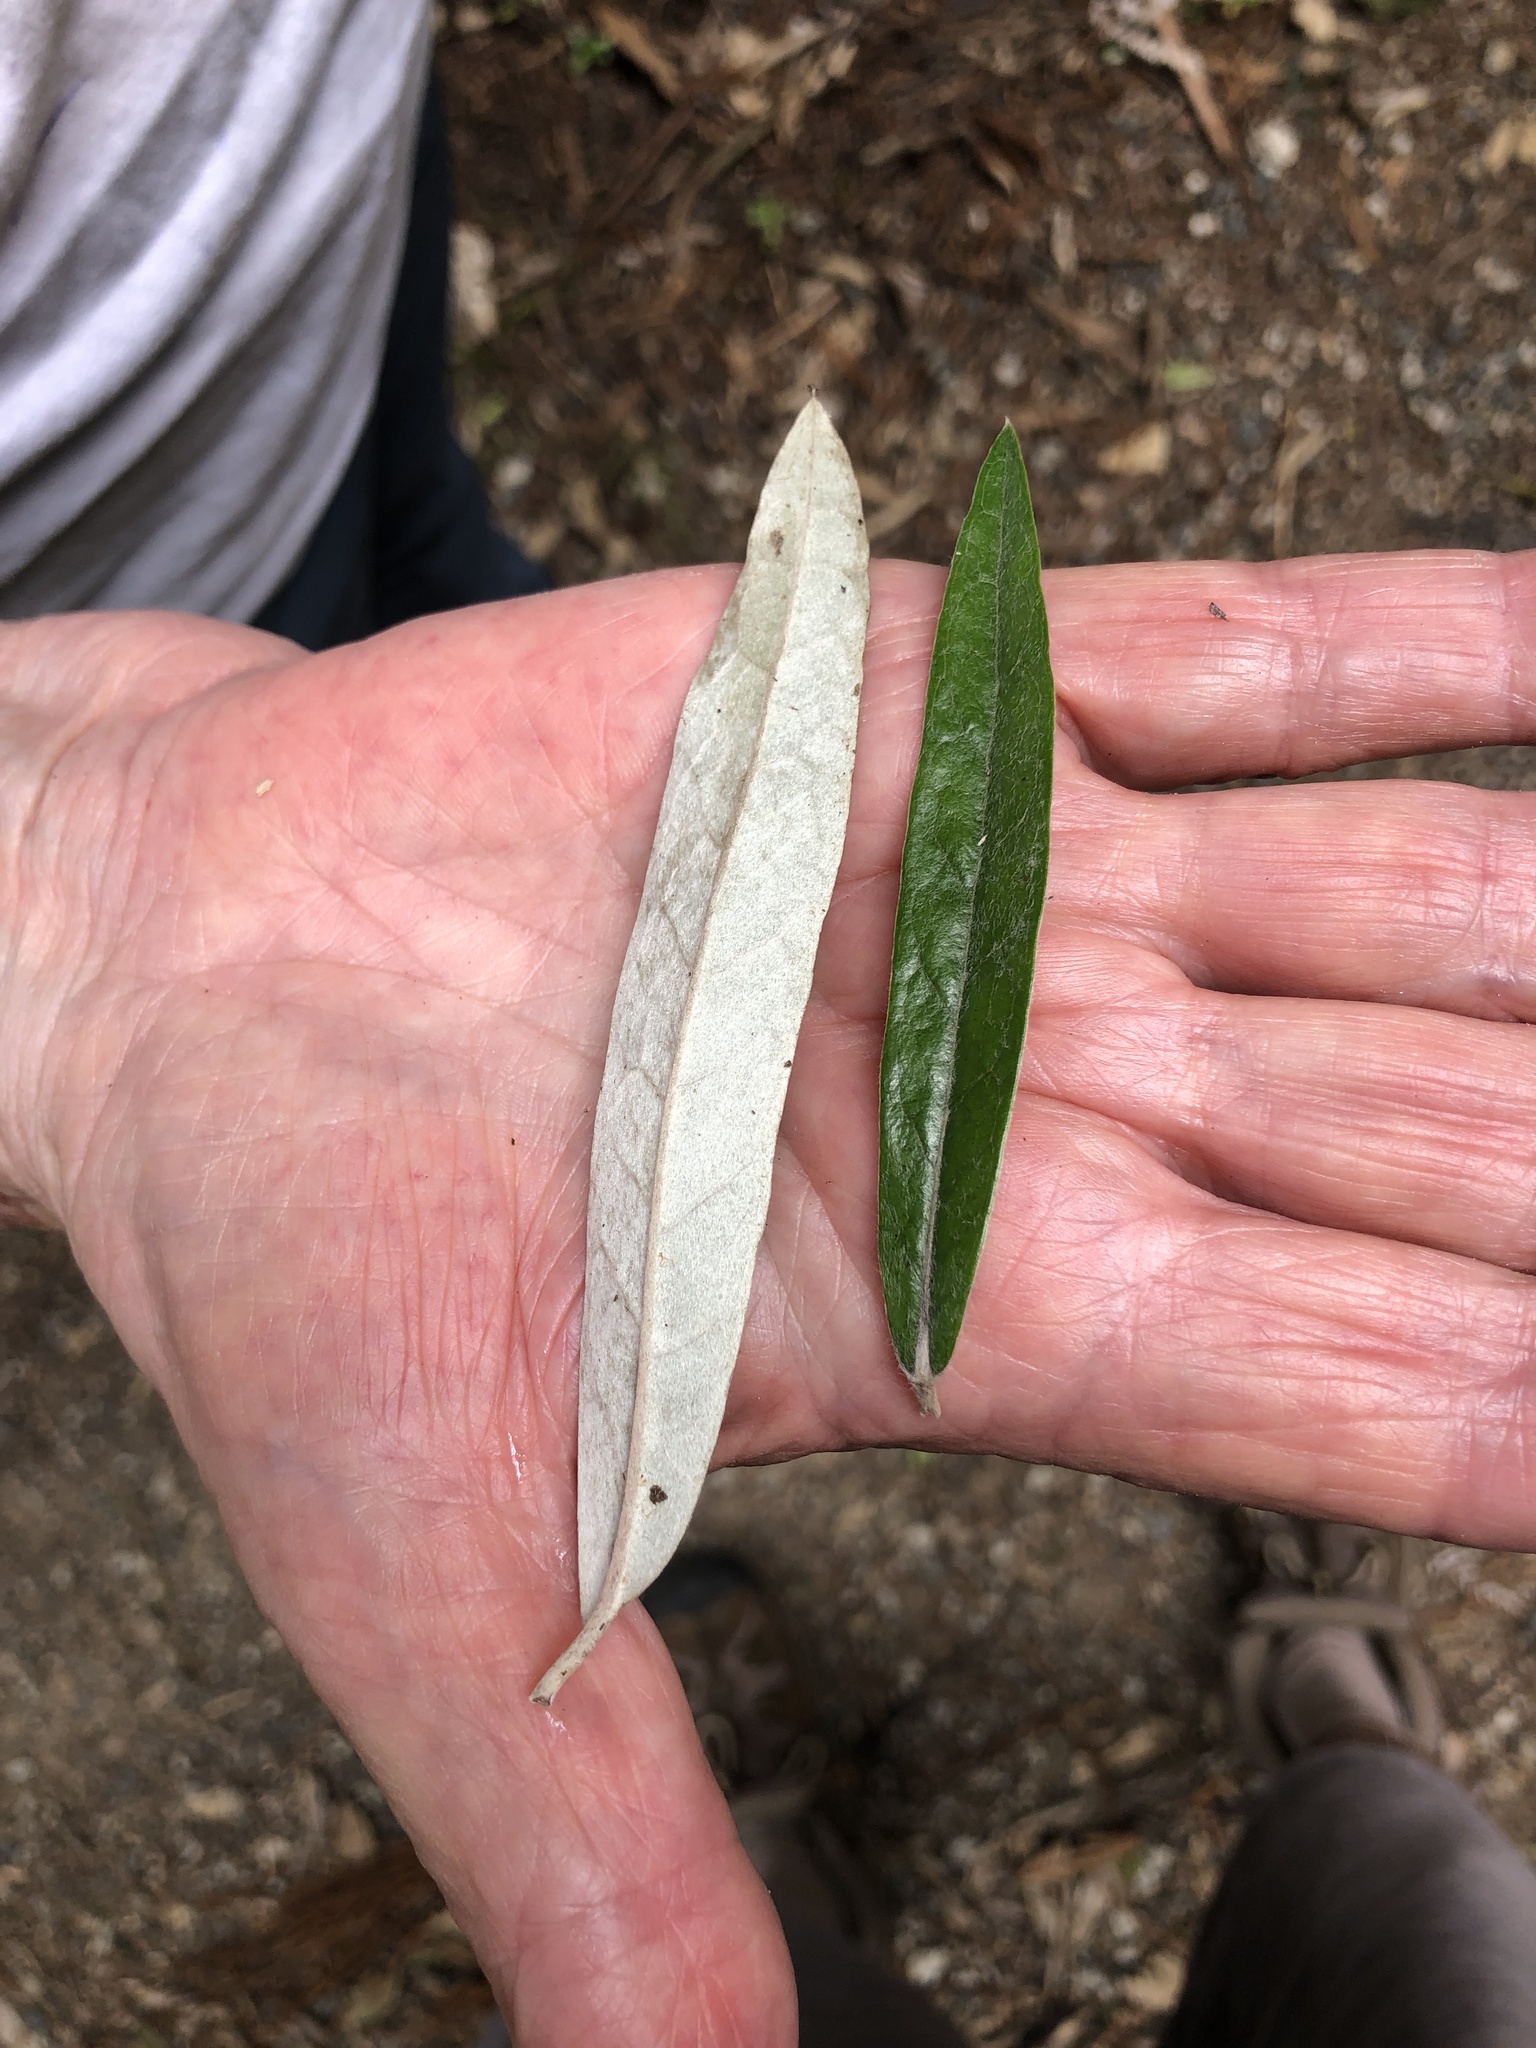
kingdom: Plantae
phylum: Tracheophyta
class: Magnoliopsida
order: Asterales
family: Argophyllaceae
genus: Corokia
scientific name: Corokia buddleioides
